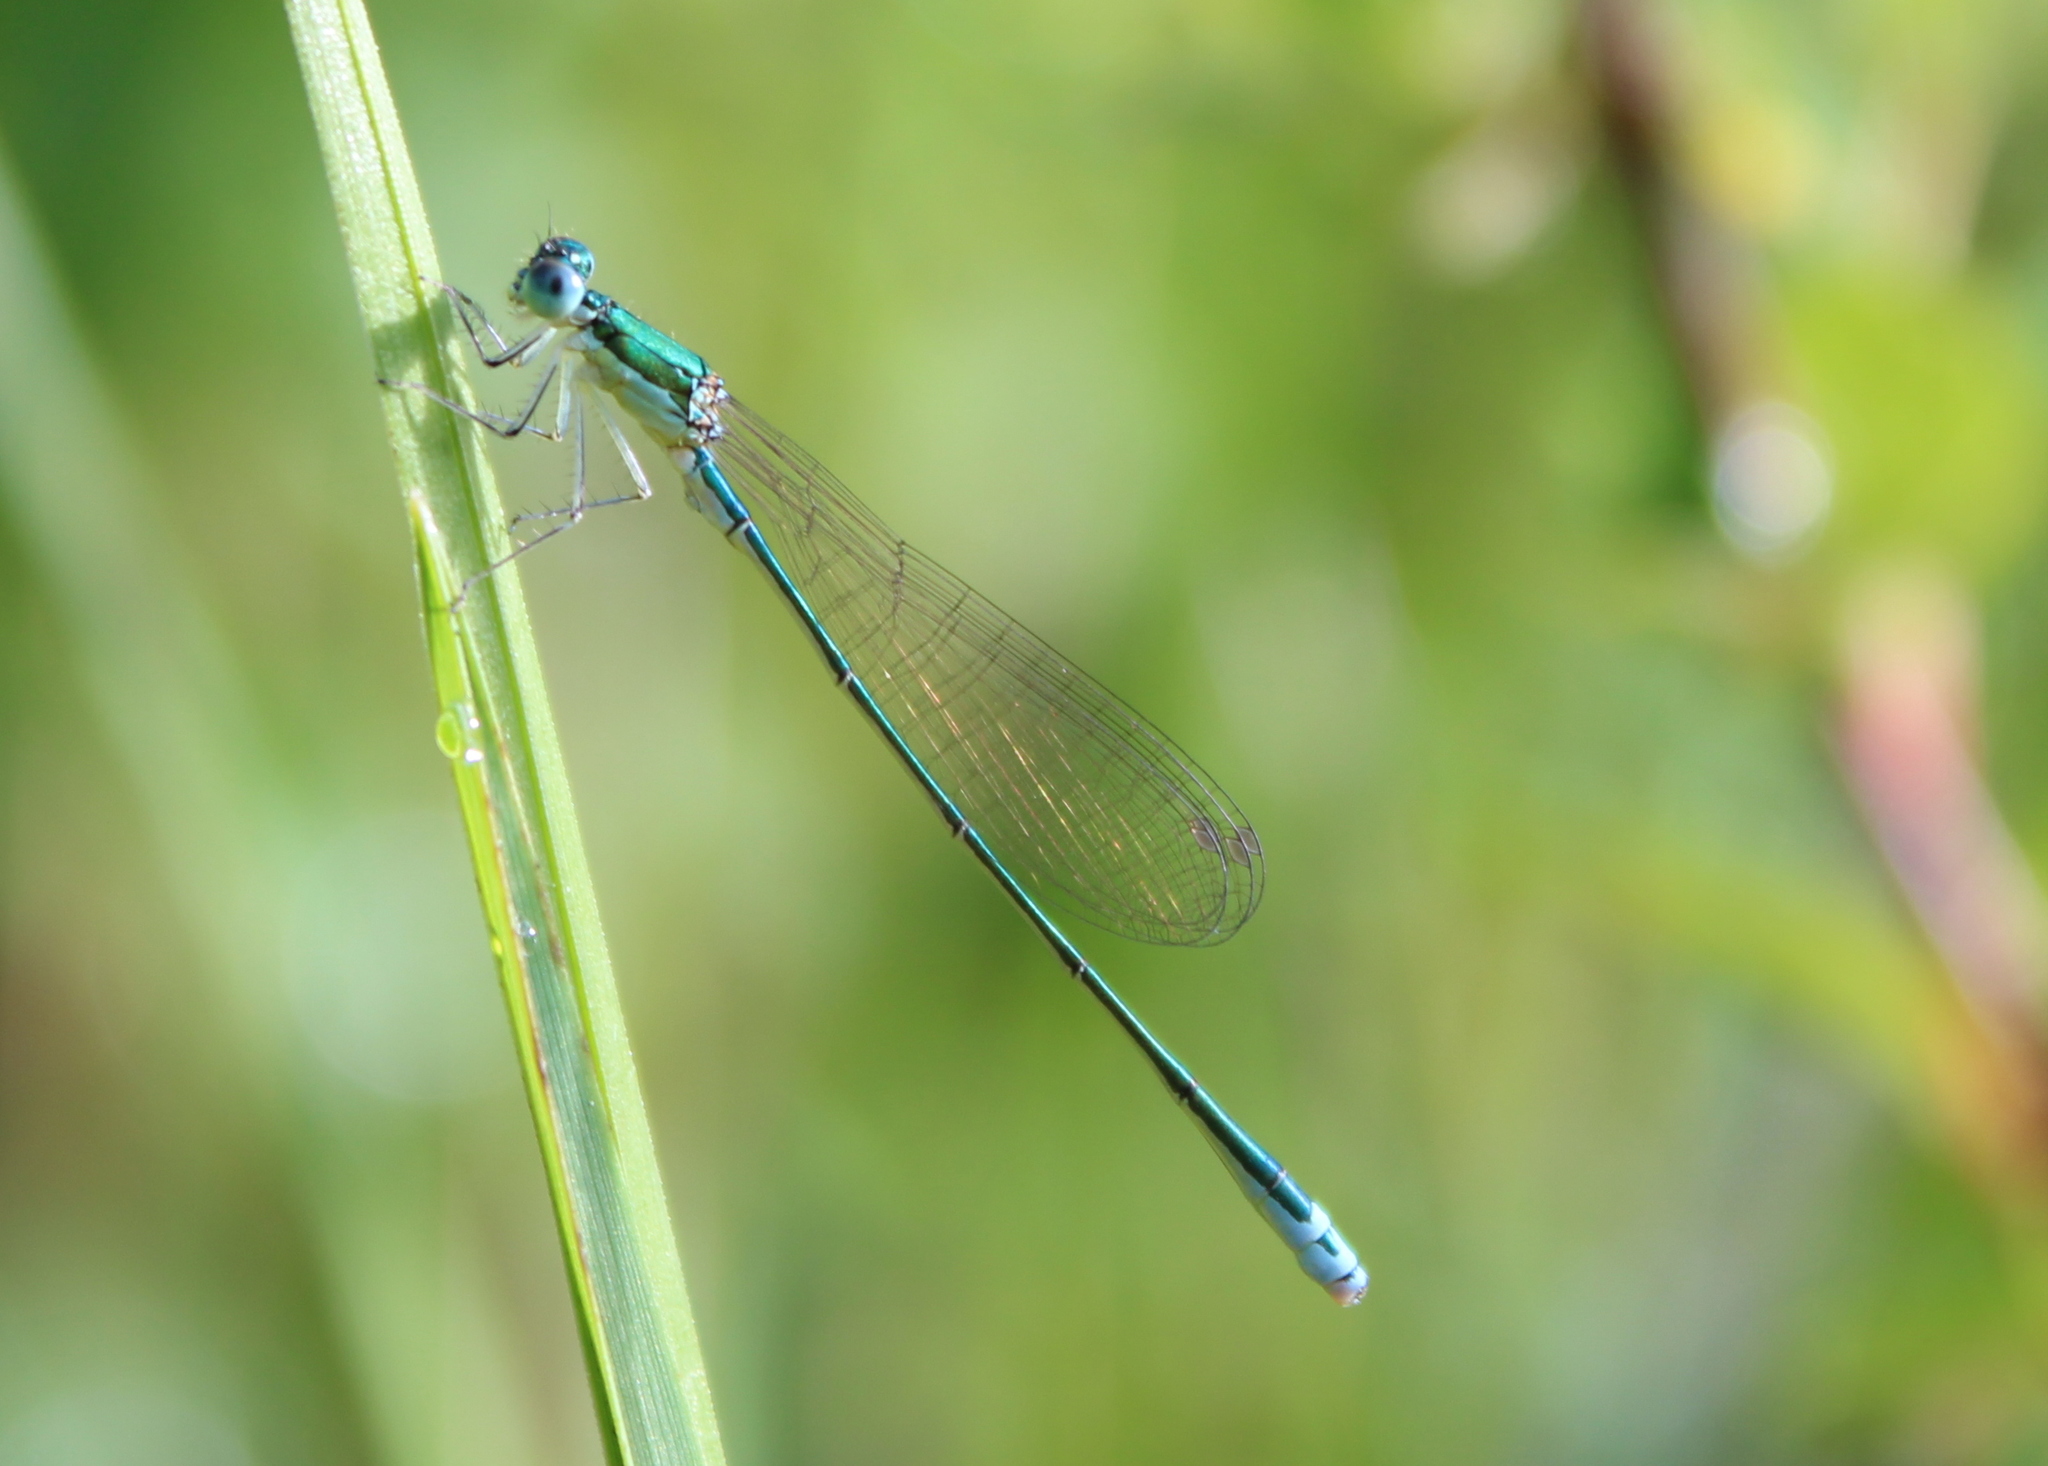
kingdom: Animalia
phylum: Arthropoda
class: Insecta
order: Odonata
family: Coenagrionidae
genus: Nehalennia
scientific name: Nehalennia irene
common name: Sedge sprite
